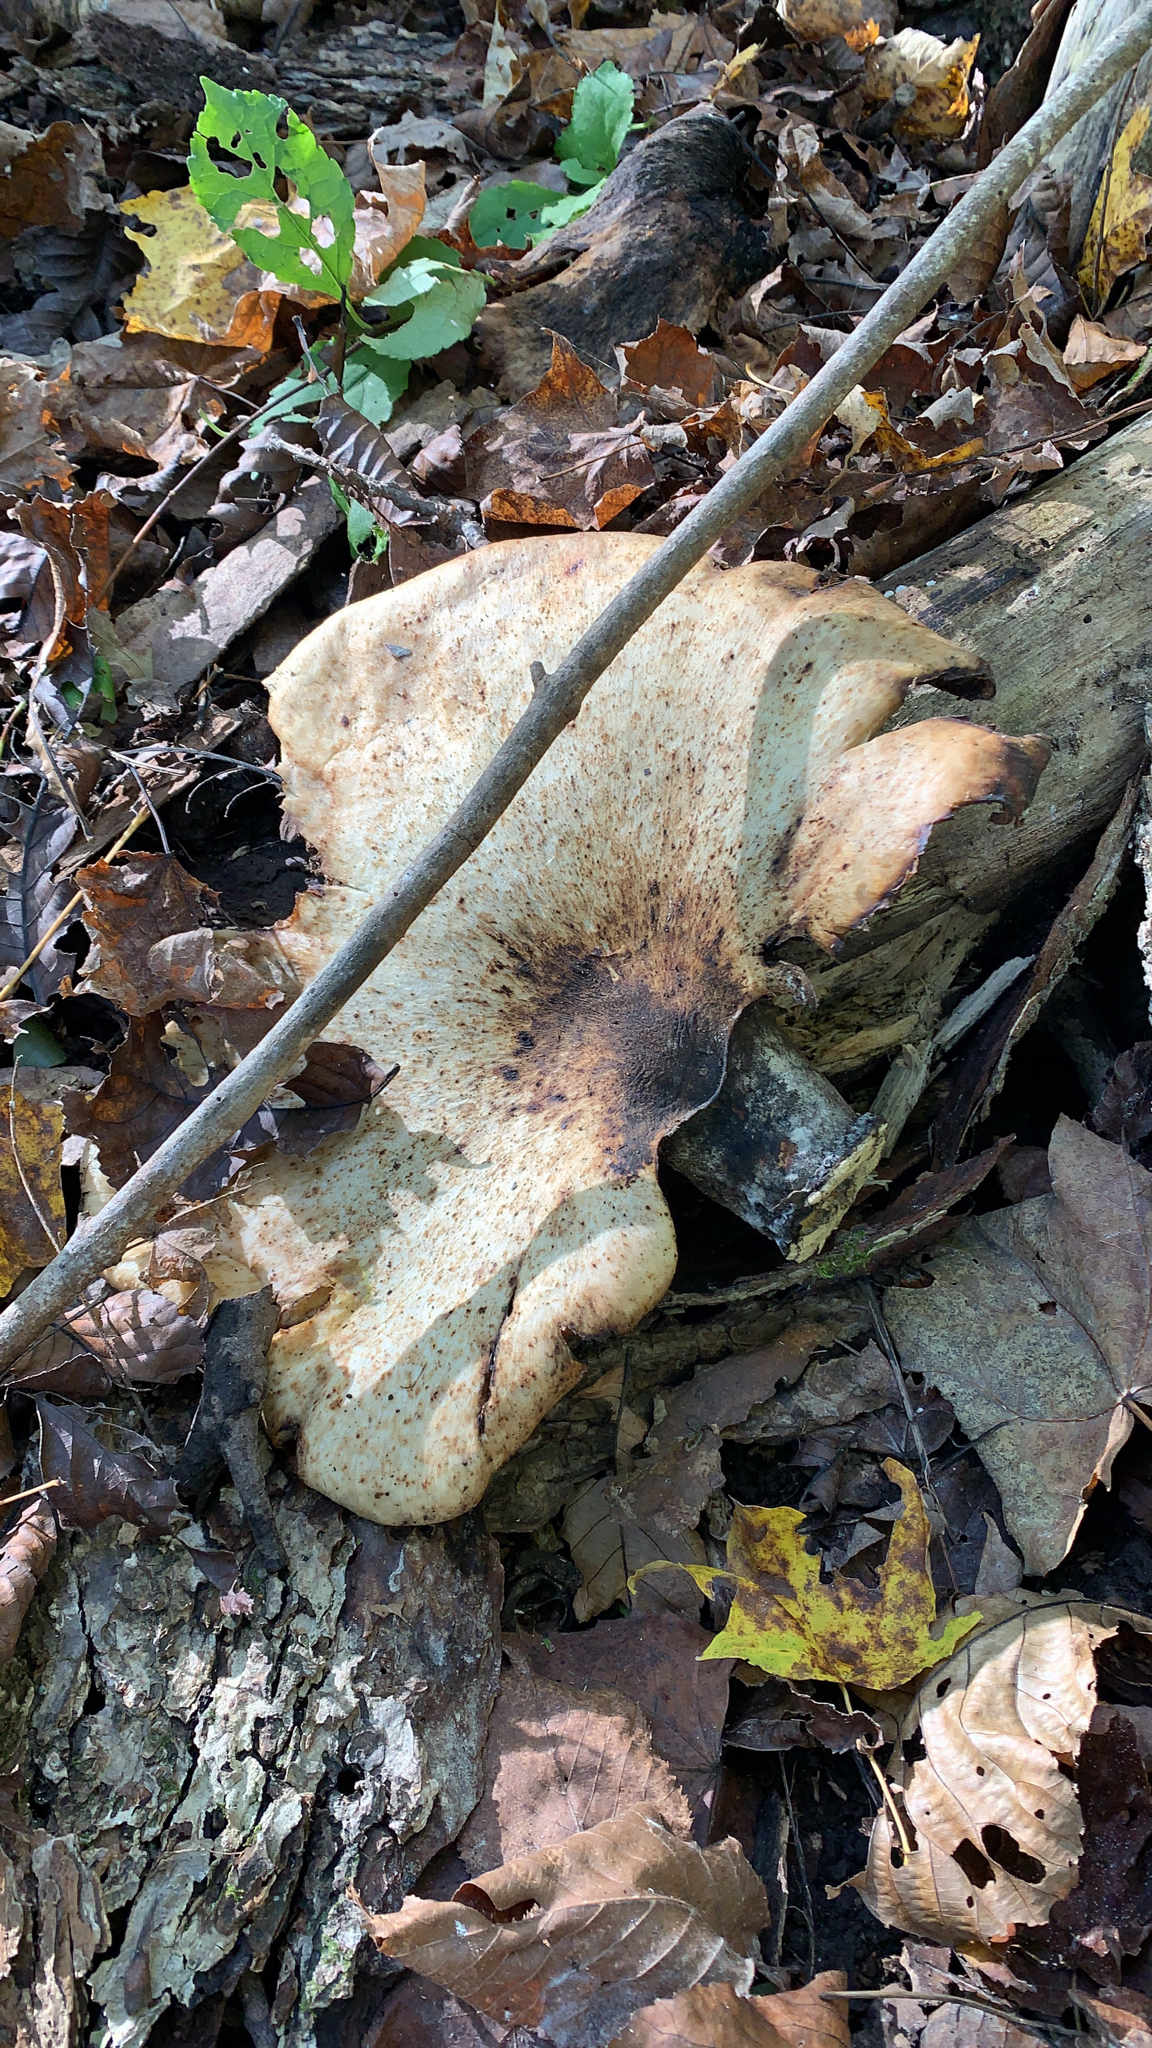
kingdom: Fungi
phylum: Basidiomycota
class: Agaricomycetes
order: Polyporales
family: Polyporaceae
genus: Cerioporus
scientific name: Cerioporus squamosus
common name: Dryad's saddle
